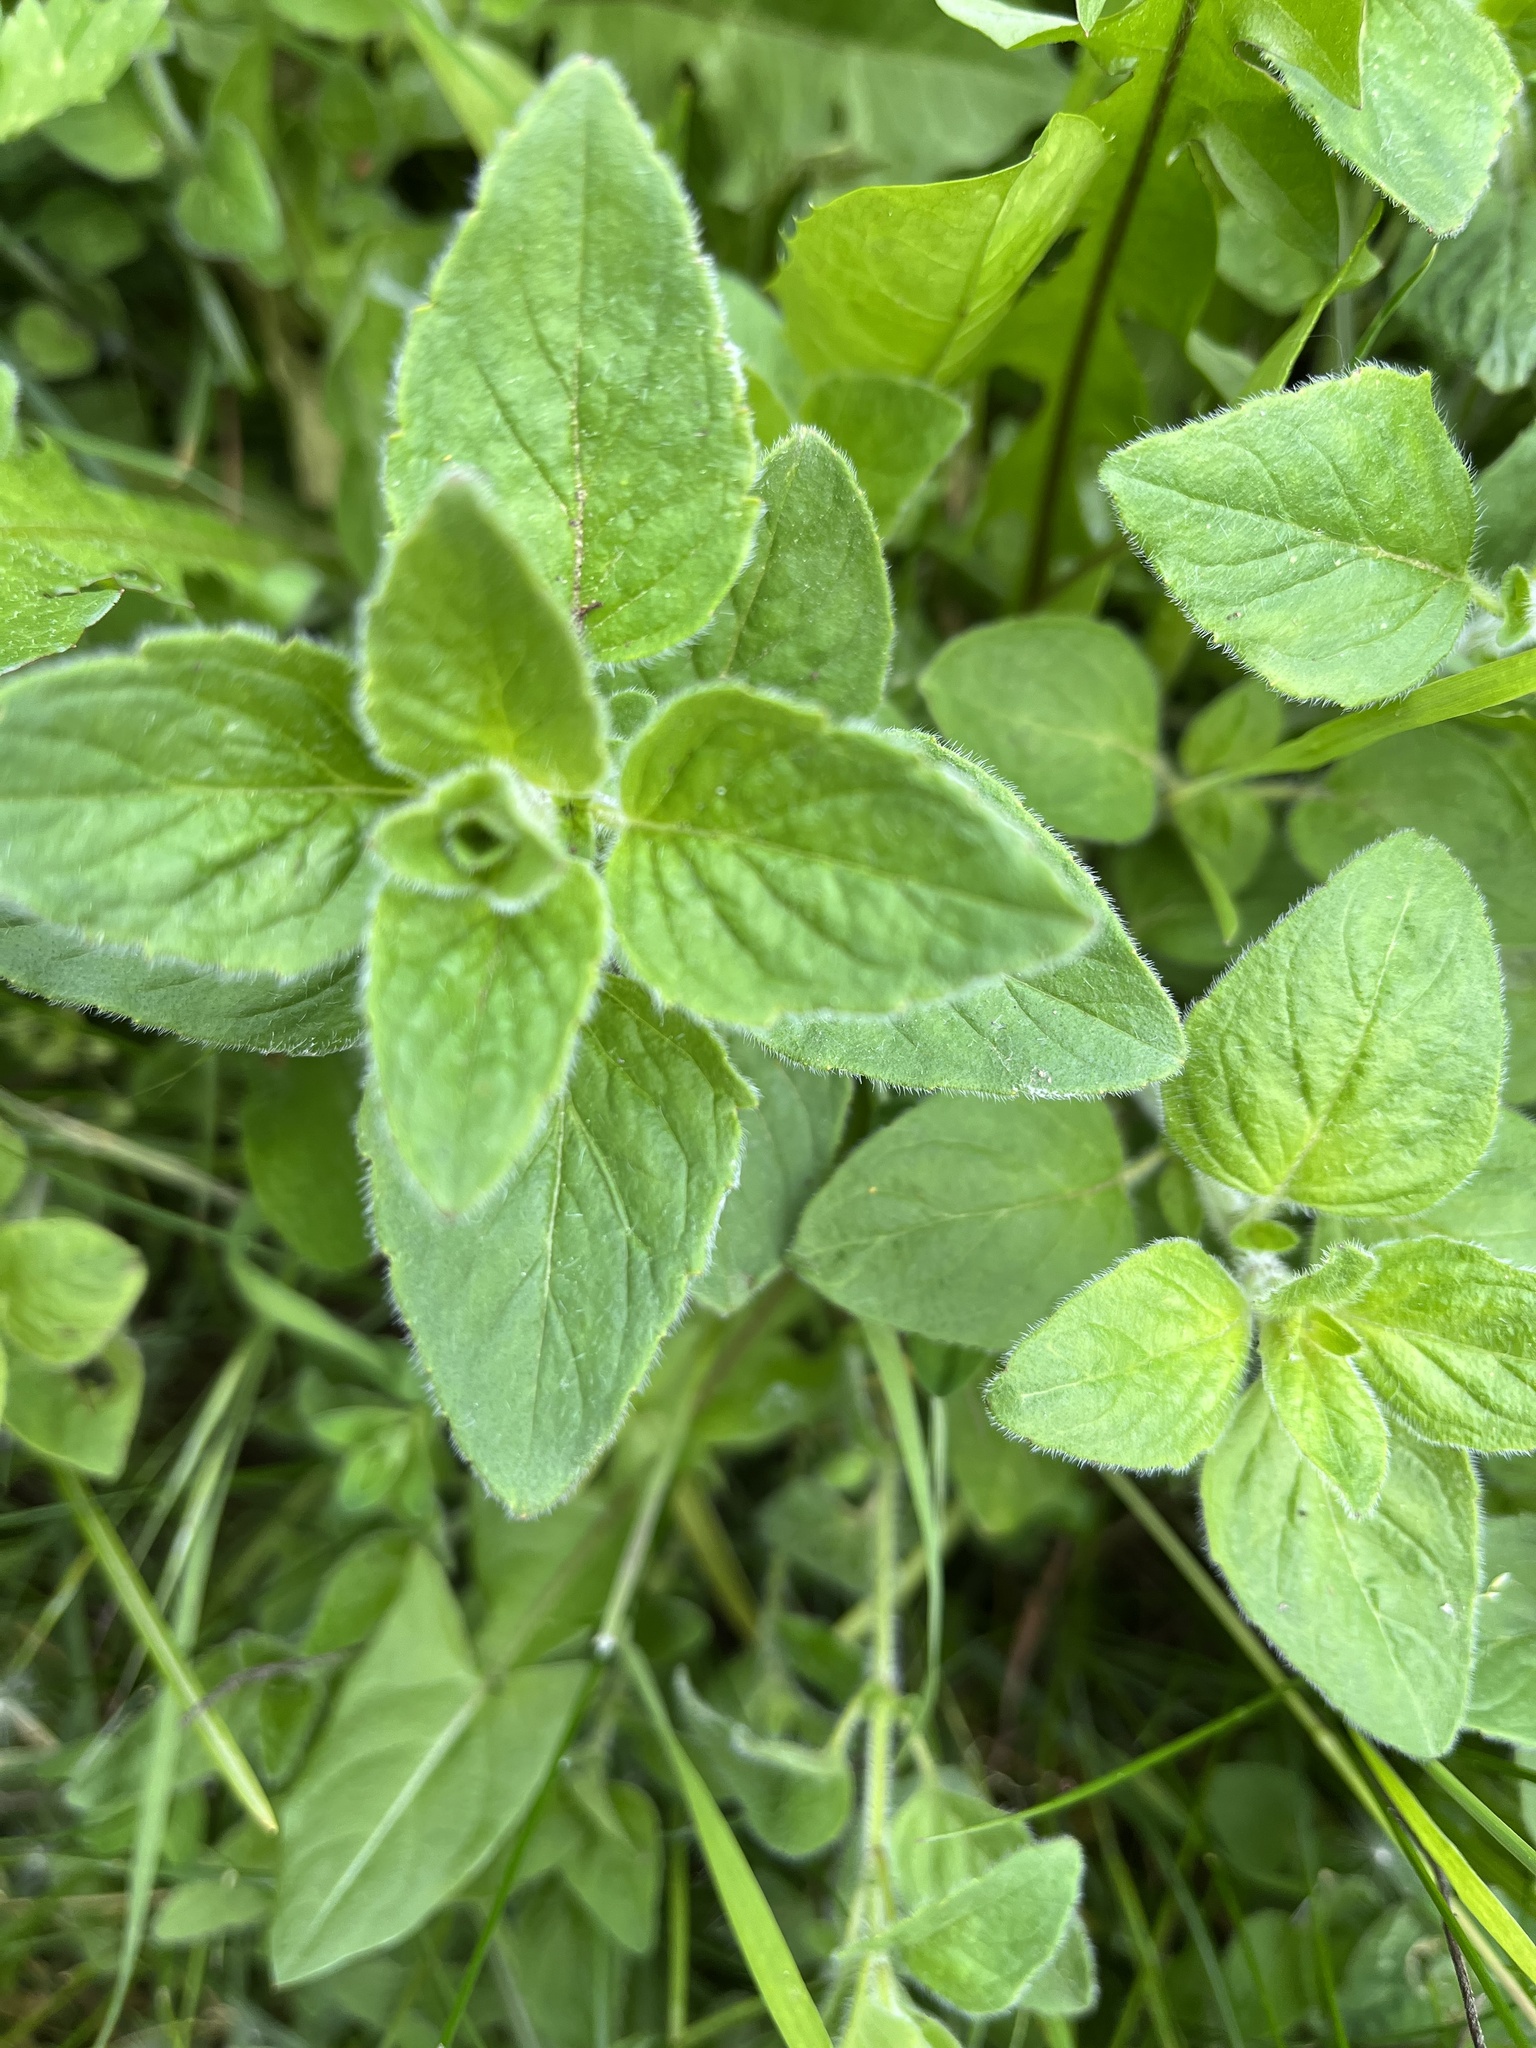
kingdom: Plantae
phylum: Tracheophyta
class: Magnoliopsida
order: Lamiales
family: Lamiaceae
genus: Origanum
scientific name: Origanum vulgare
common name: Wild marjoram
